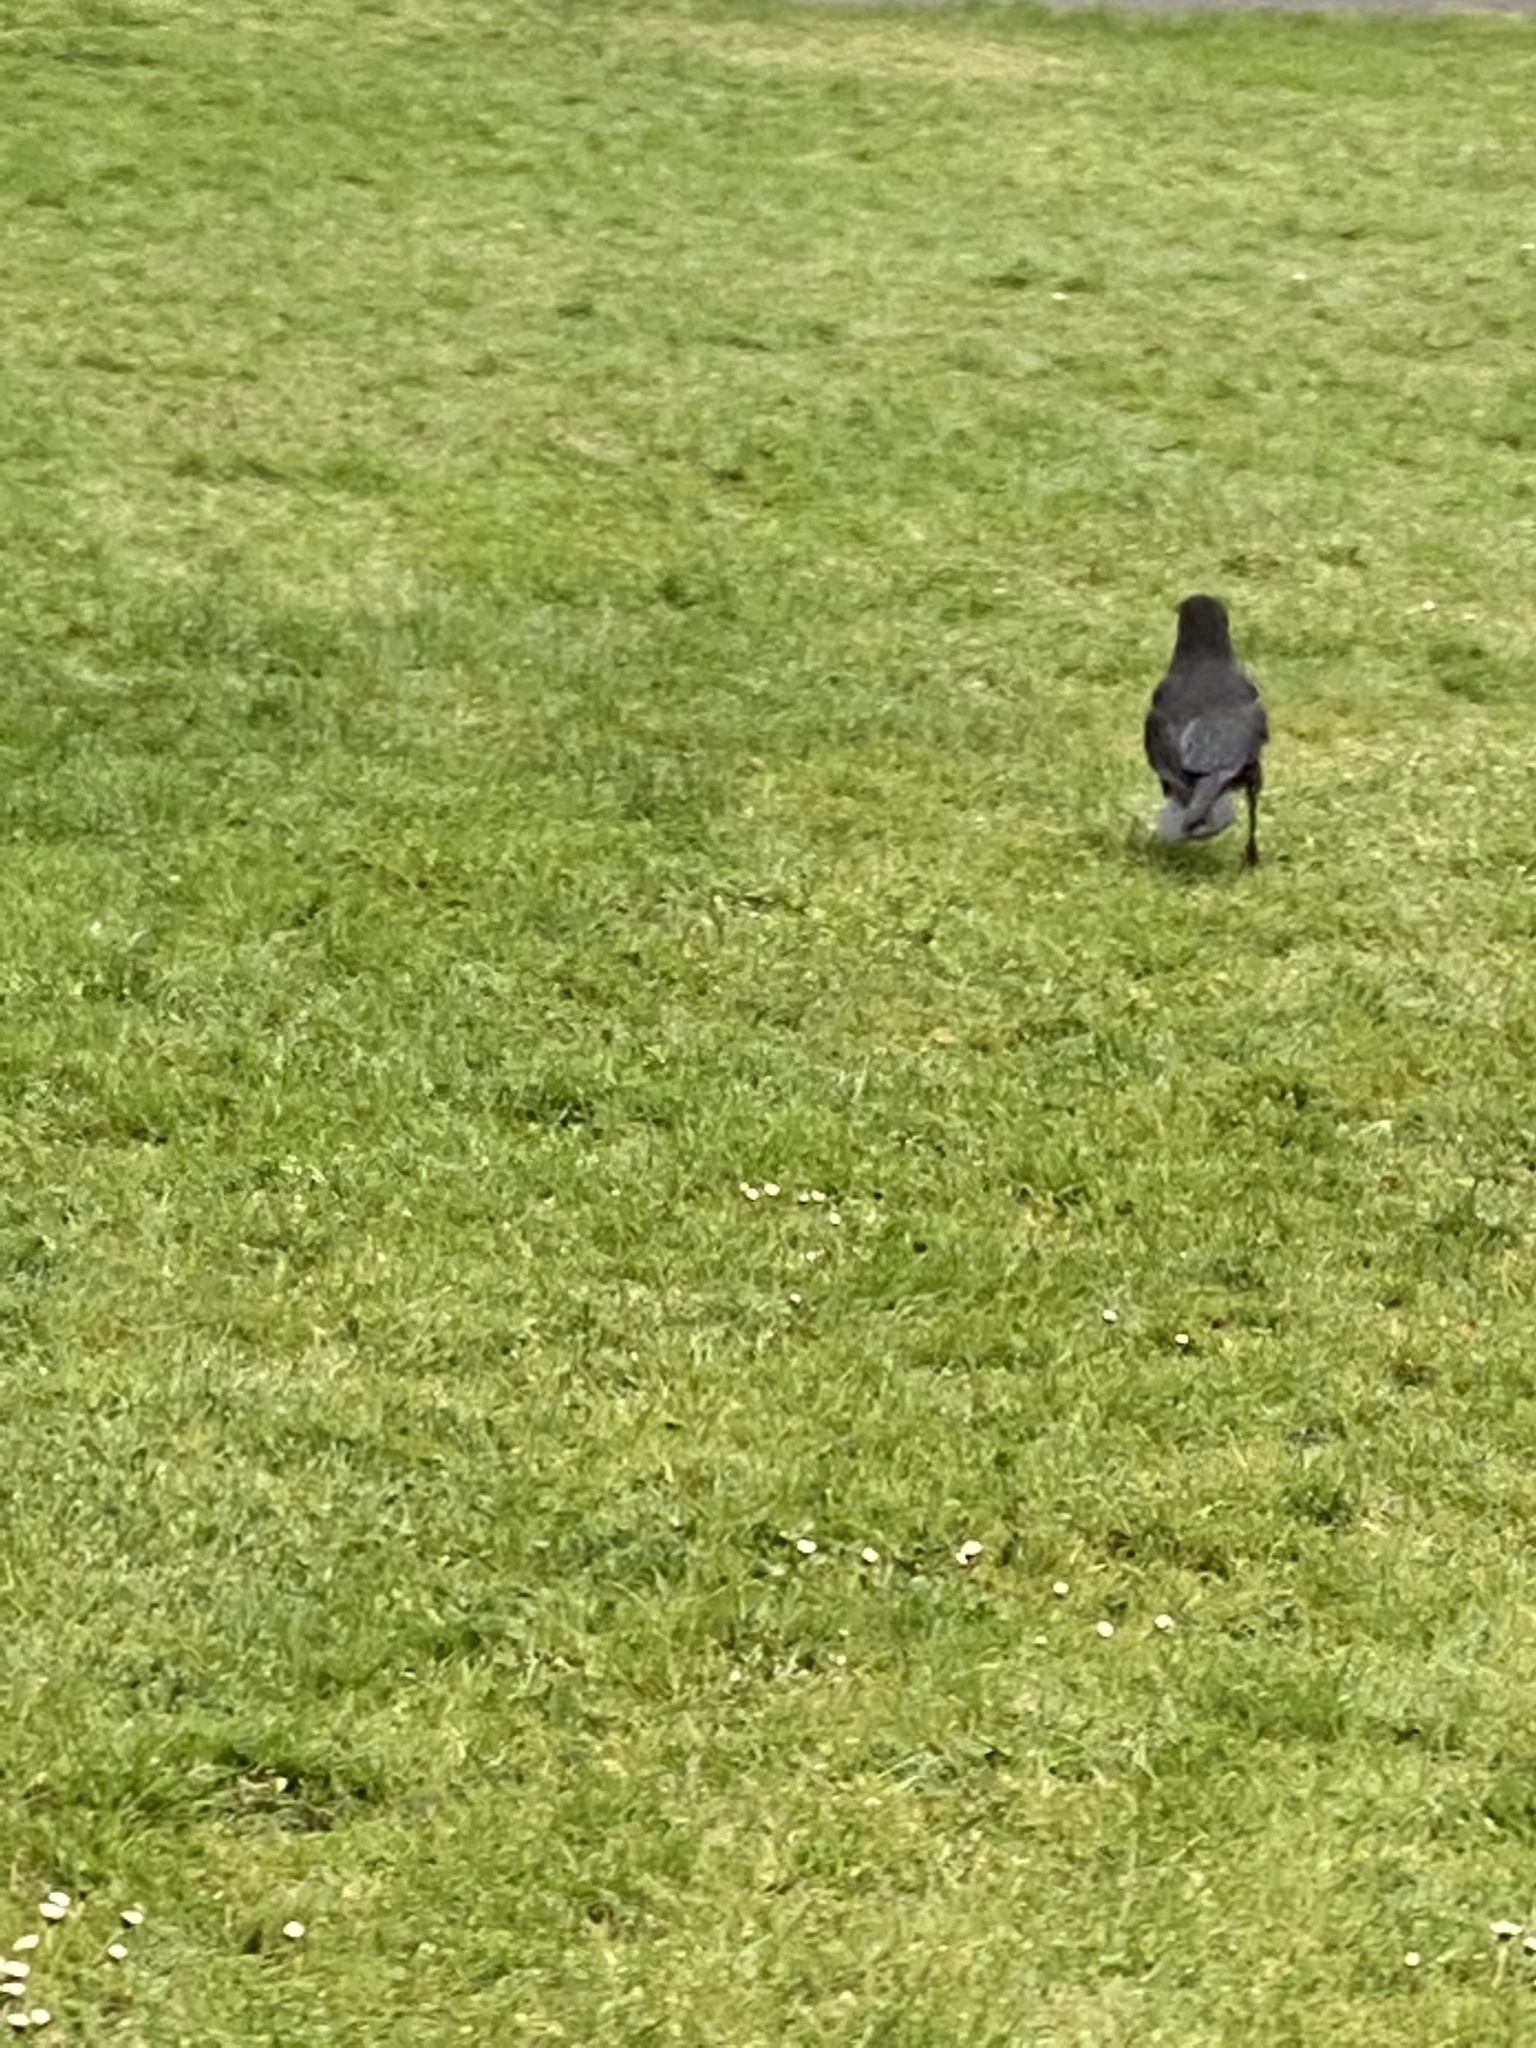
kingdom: Animalia
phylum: Chordata
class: Aves
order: Passeriformes
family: Corvidae
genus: Corvus
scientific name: Corvus brachyrhynchos
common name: American crow
